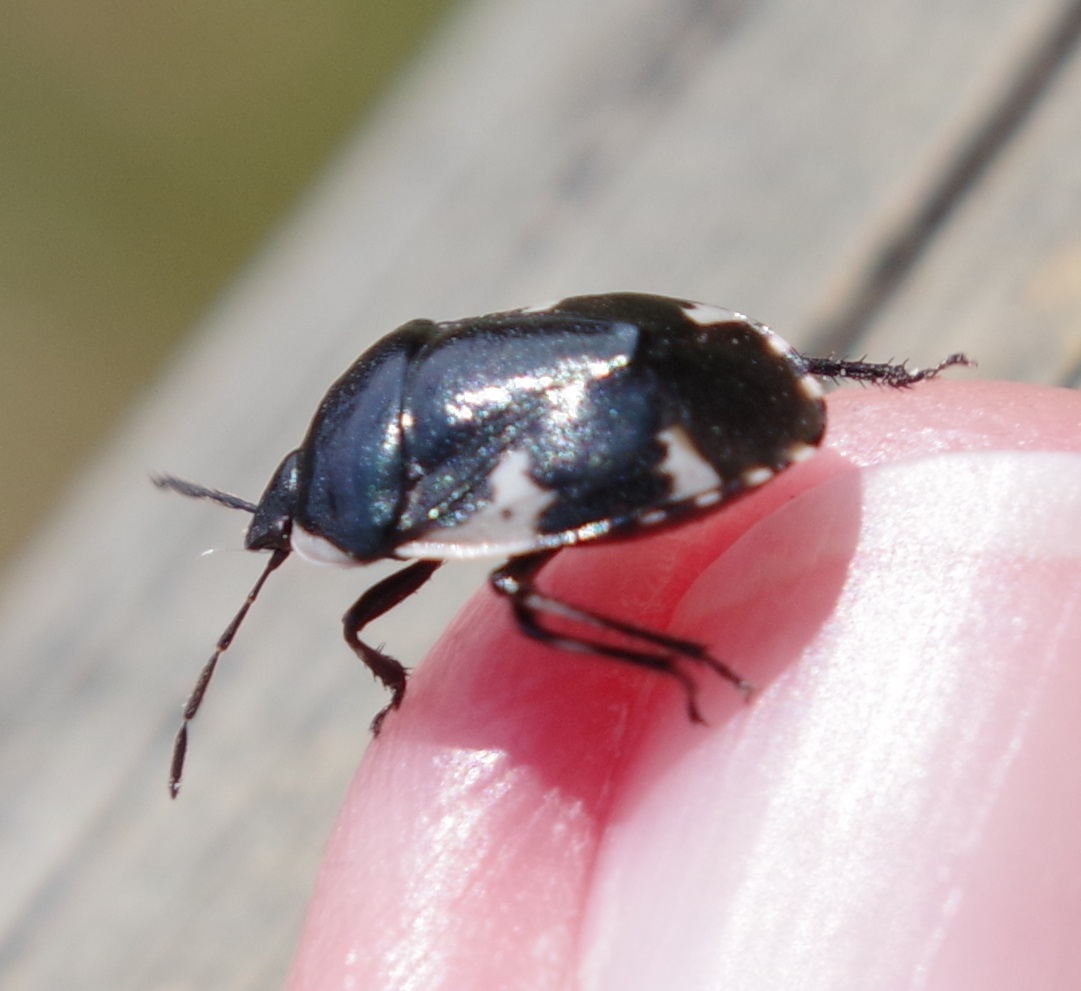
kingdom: Animalia
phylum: Arthropoda
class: Insecta
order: Hemiptera
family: Cydnidae
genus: Tritomegas
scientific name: Tritomegas sexmaculatus
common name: Rambur's pied shieldbug
